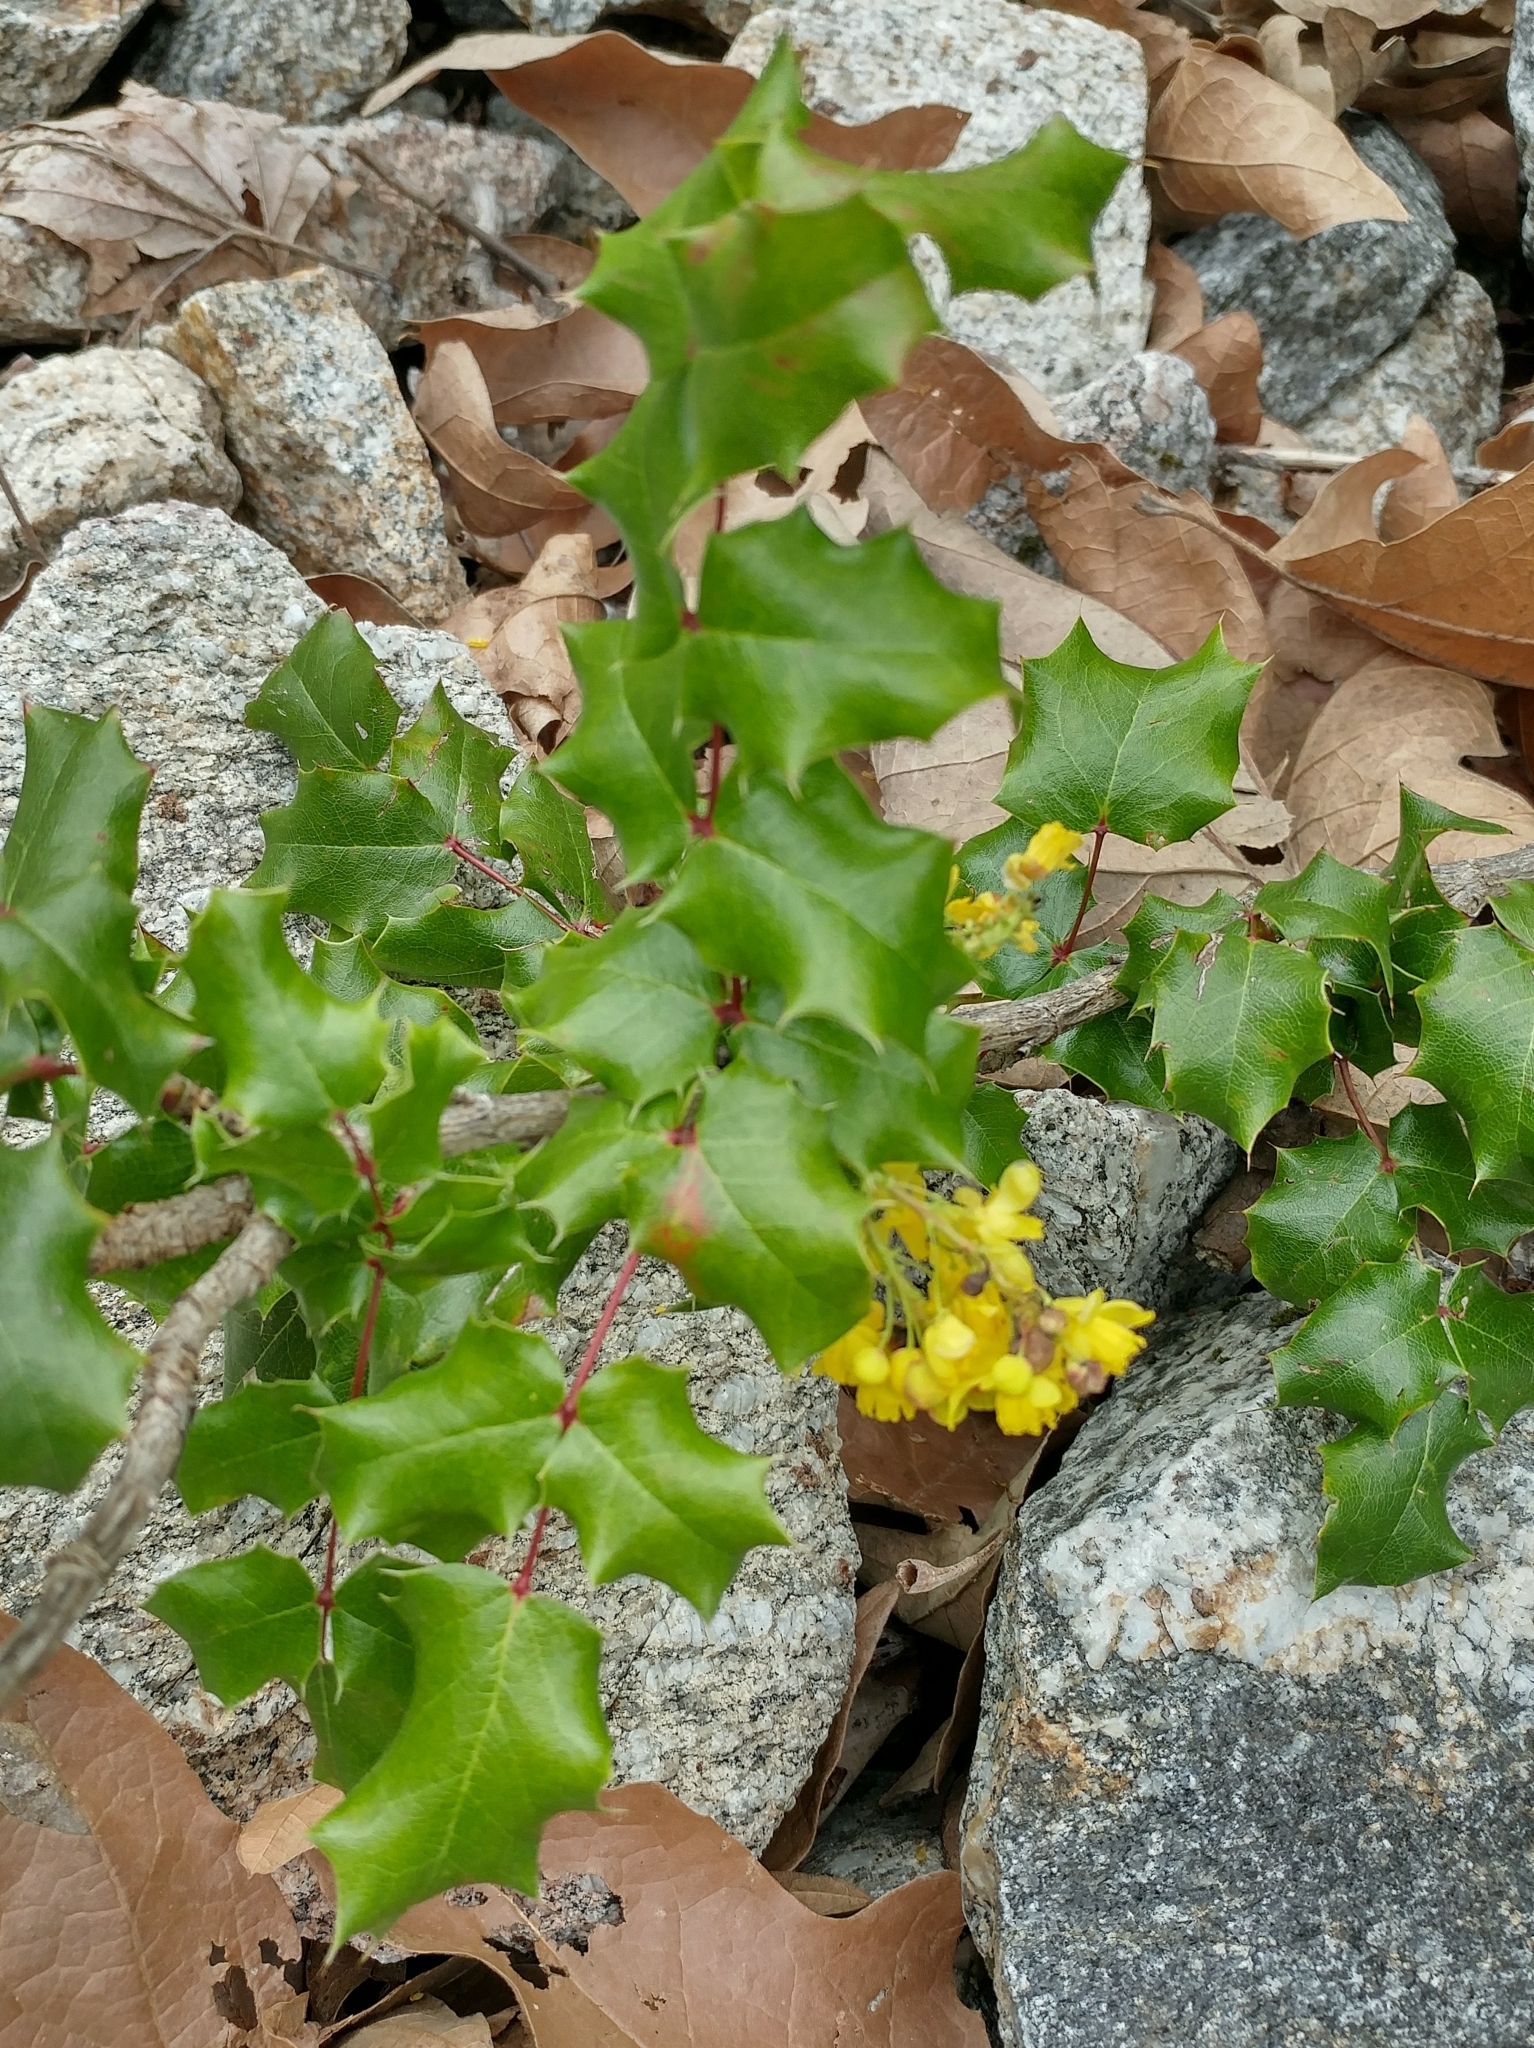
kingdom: Plantae
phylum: Tracheophyta
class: Magnoliopsida
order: Ranunculales
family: Berberidaceae
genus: Mahonia
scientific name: Mahonia
